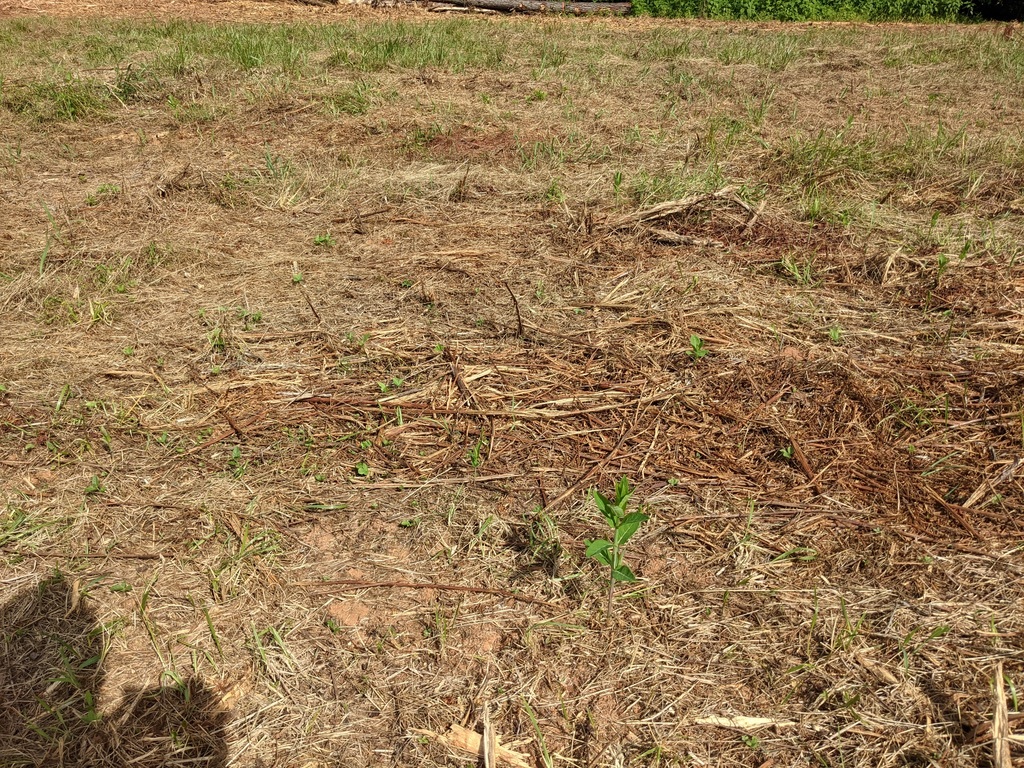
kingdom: Plantae
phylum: Tracheophyta
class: Magnoliopsida
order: Gentianales
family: Apocynaceae
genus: Asclepias
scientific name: Asclepias syriaca
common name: Common milkweed
